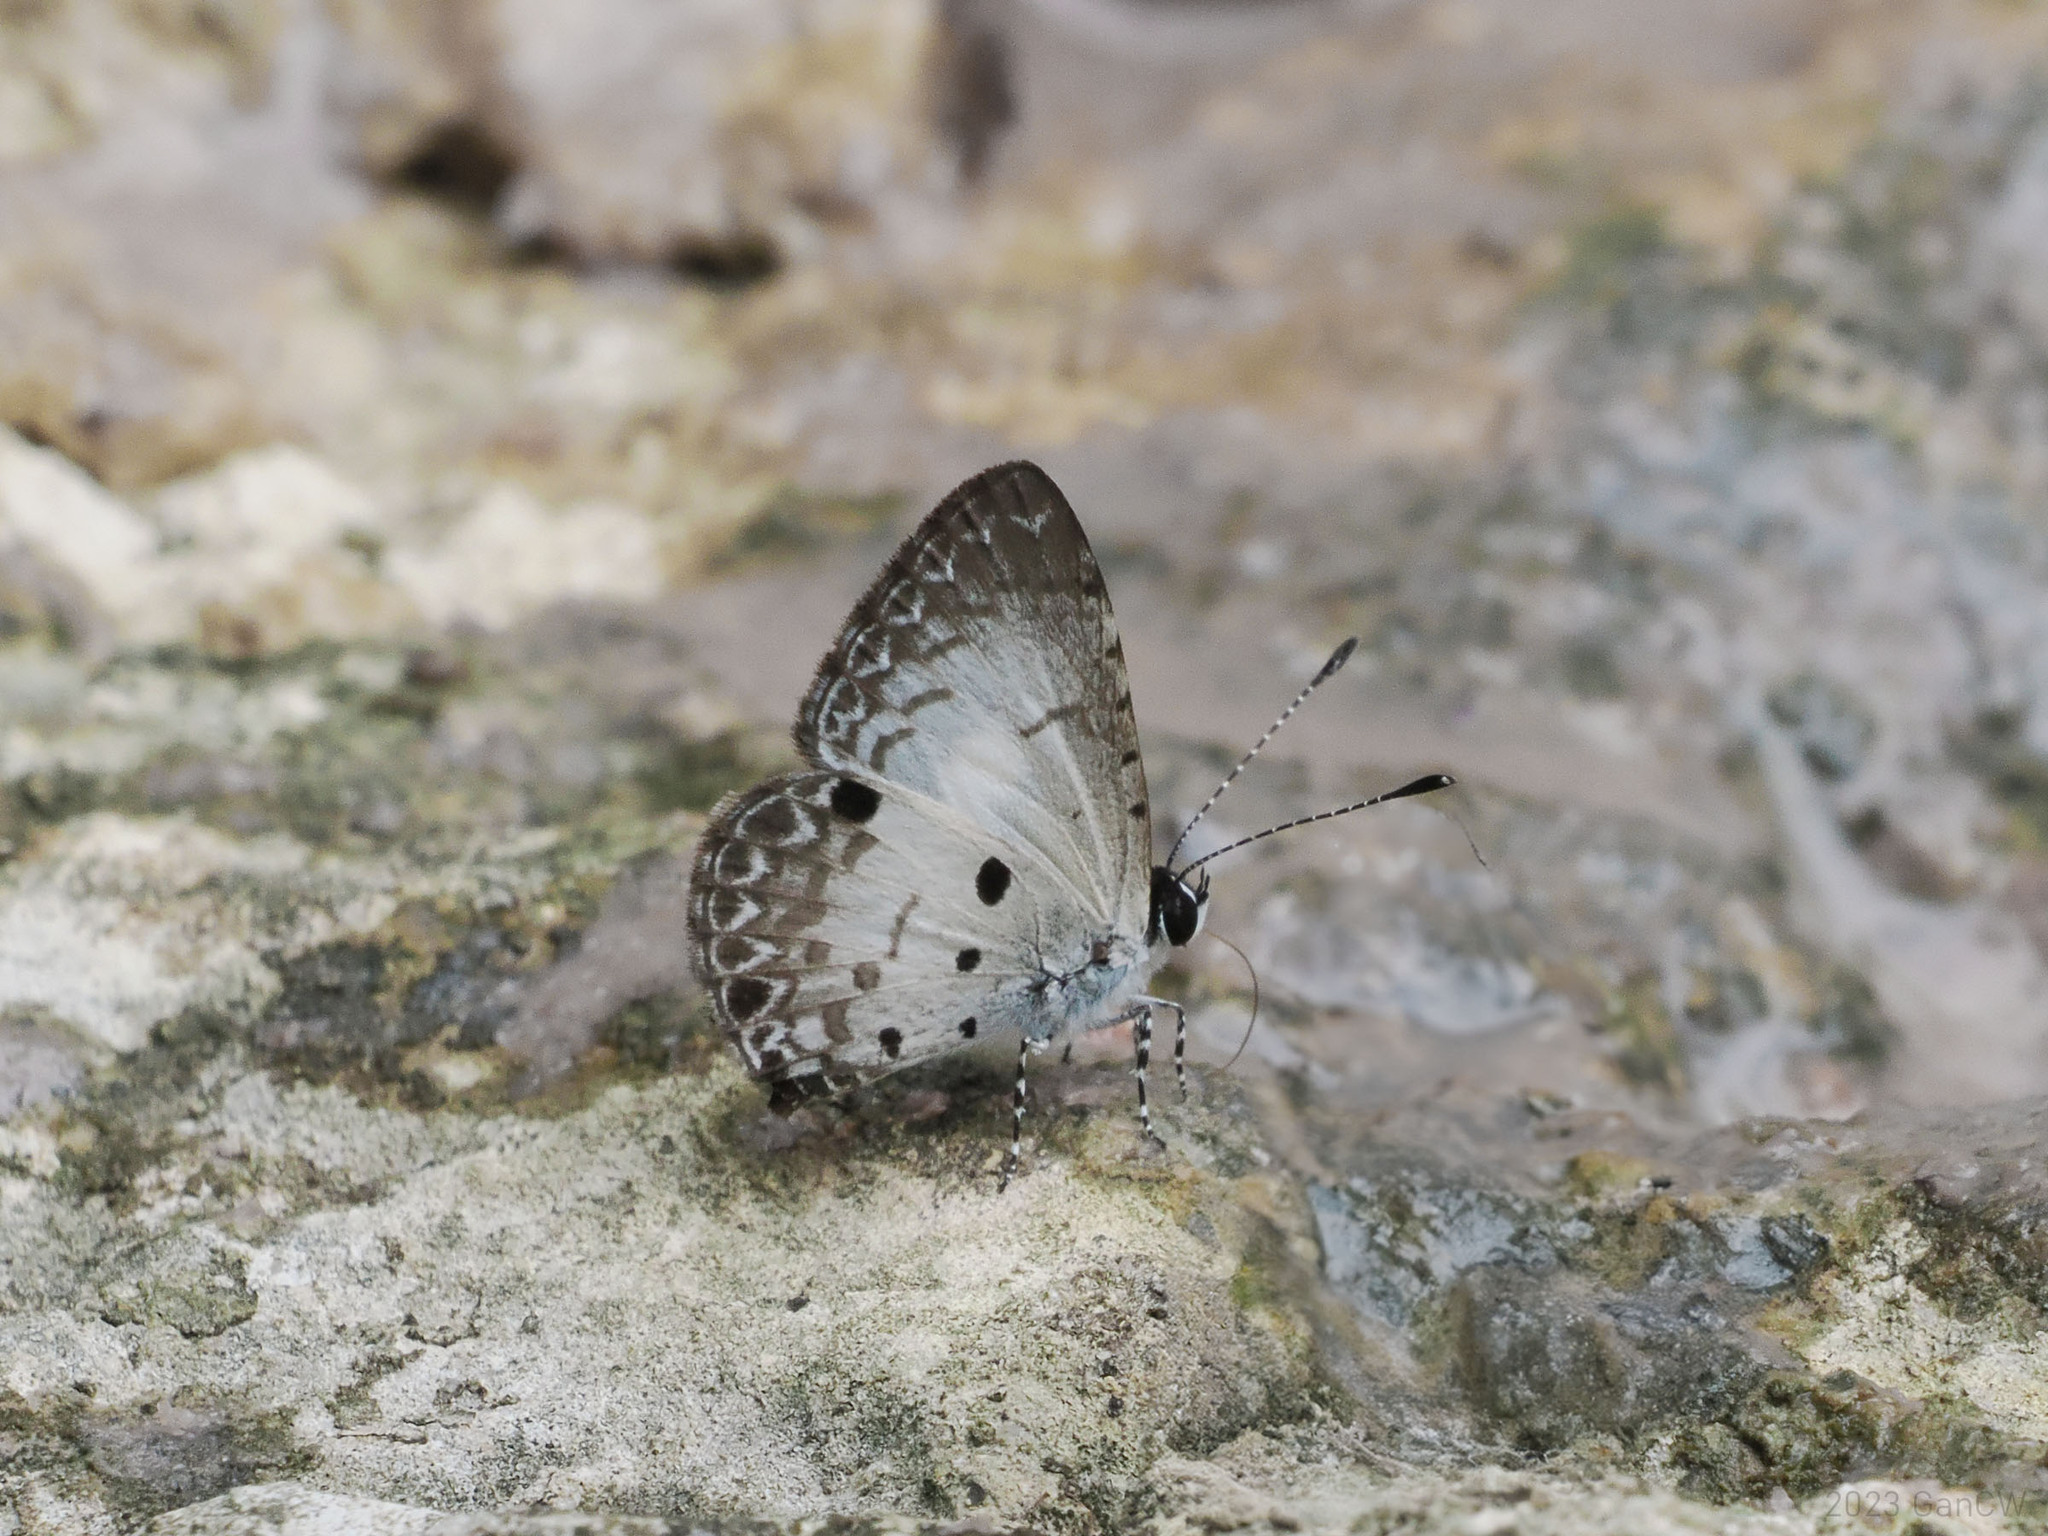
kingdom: Animalia
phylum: Arthropoda
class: Insecta
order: Lepidoptera
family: Lycaenidae
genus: Megisba
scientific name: Megisba strongyle
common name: Small pied blue
